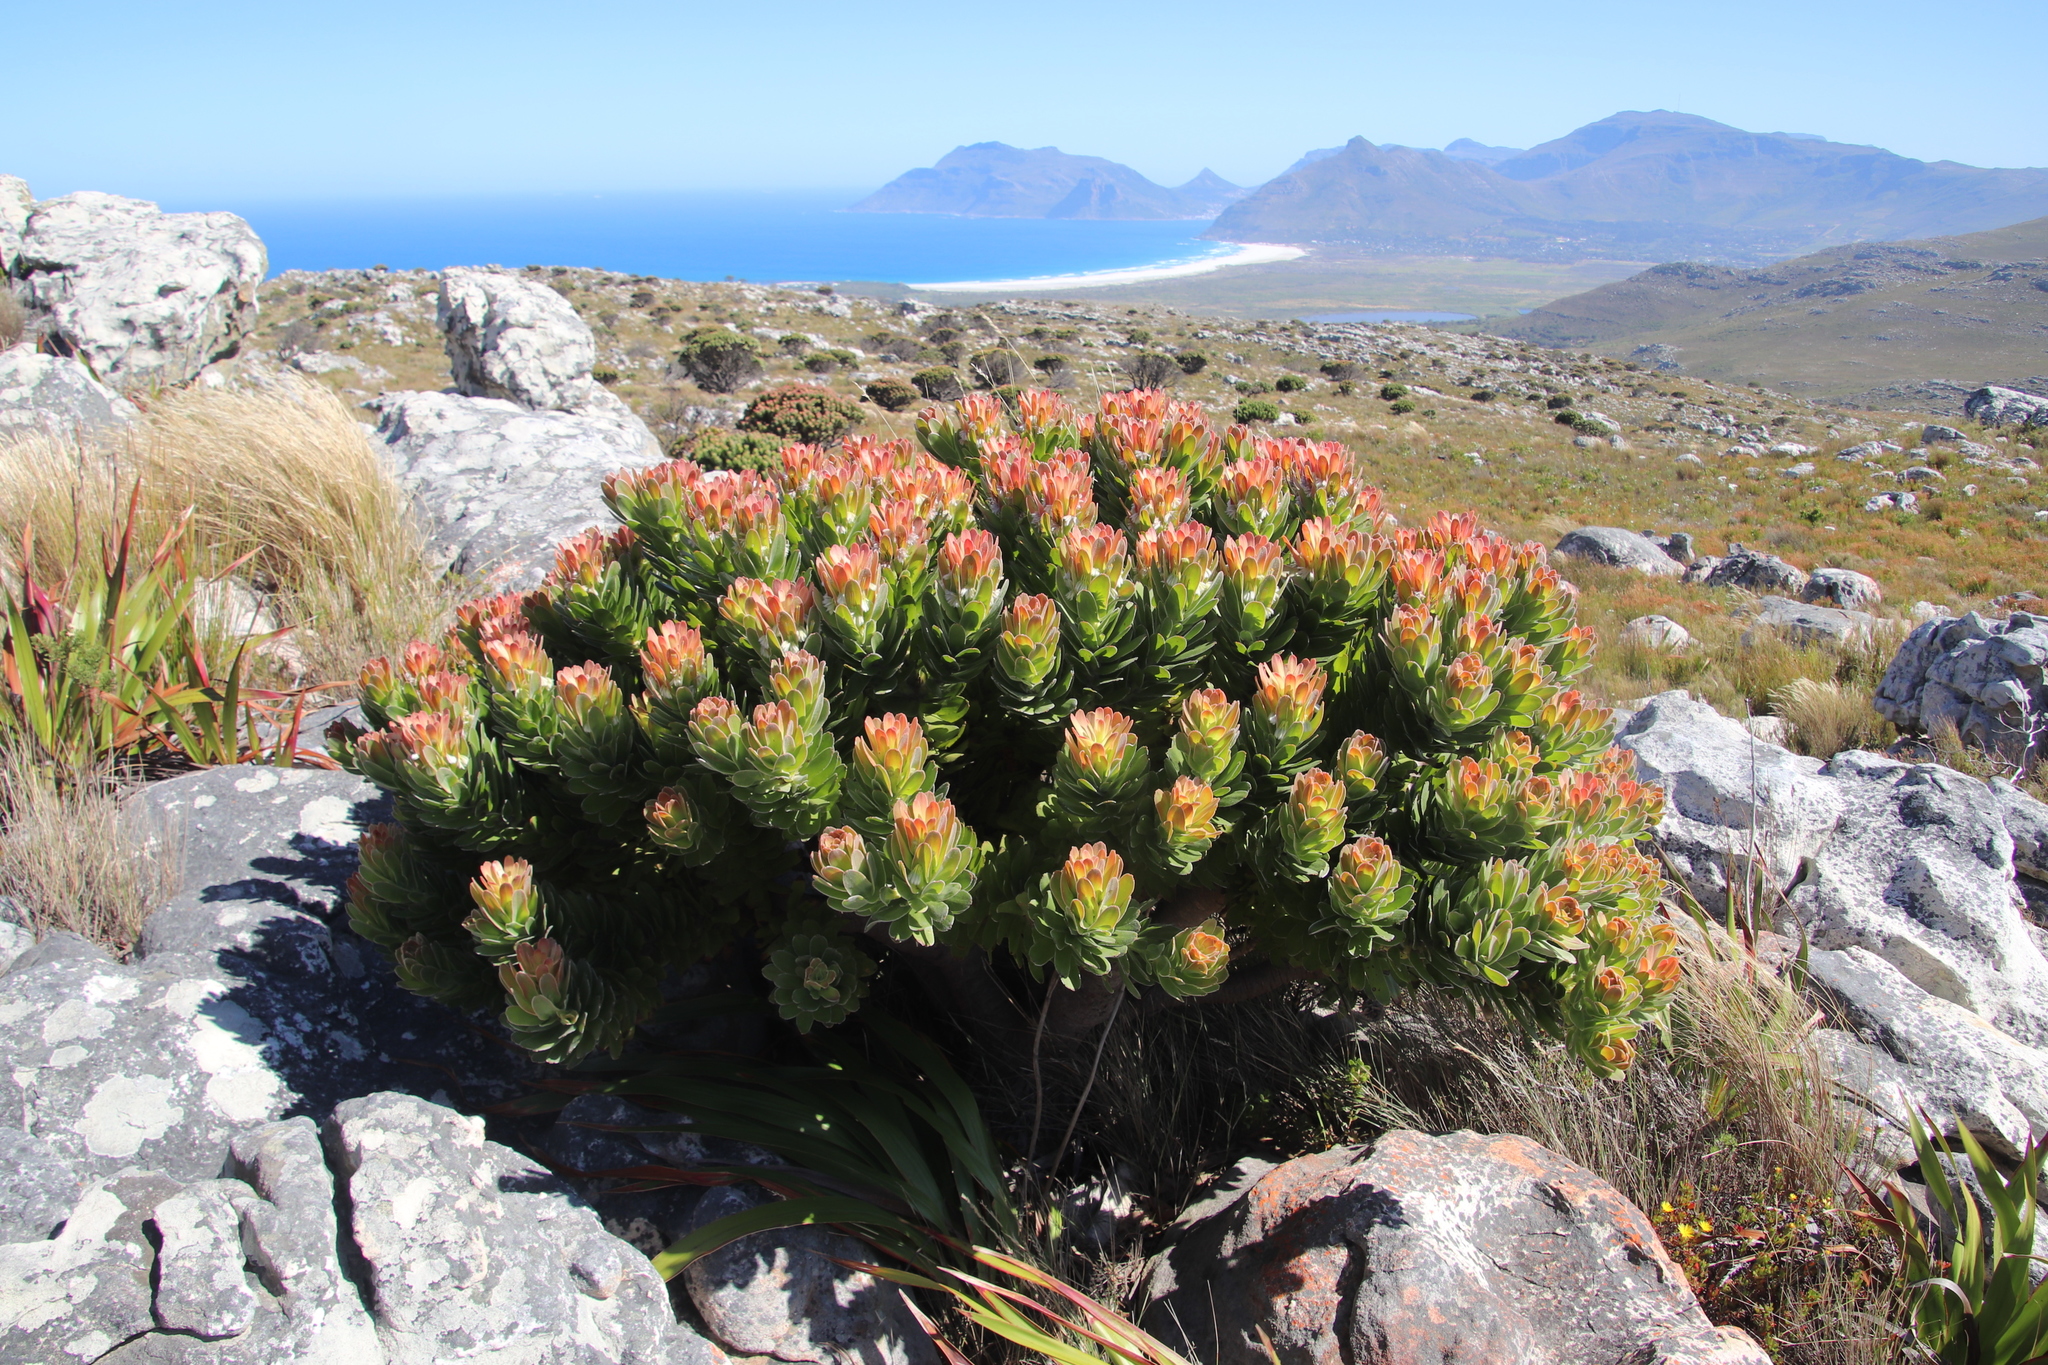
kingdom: Plantae
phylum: Tracheophyta
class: Magnoliopsida
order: Proteales
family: Proteaceae
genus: Mimetes
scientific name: Mimetes fimbriifolius
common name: Fringed bottlebrush
